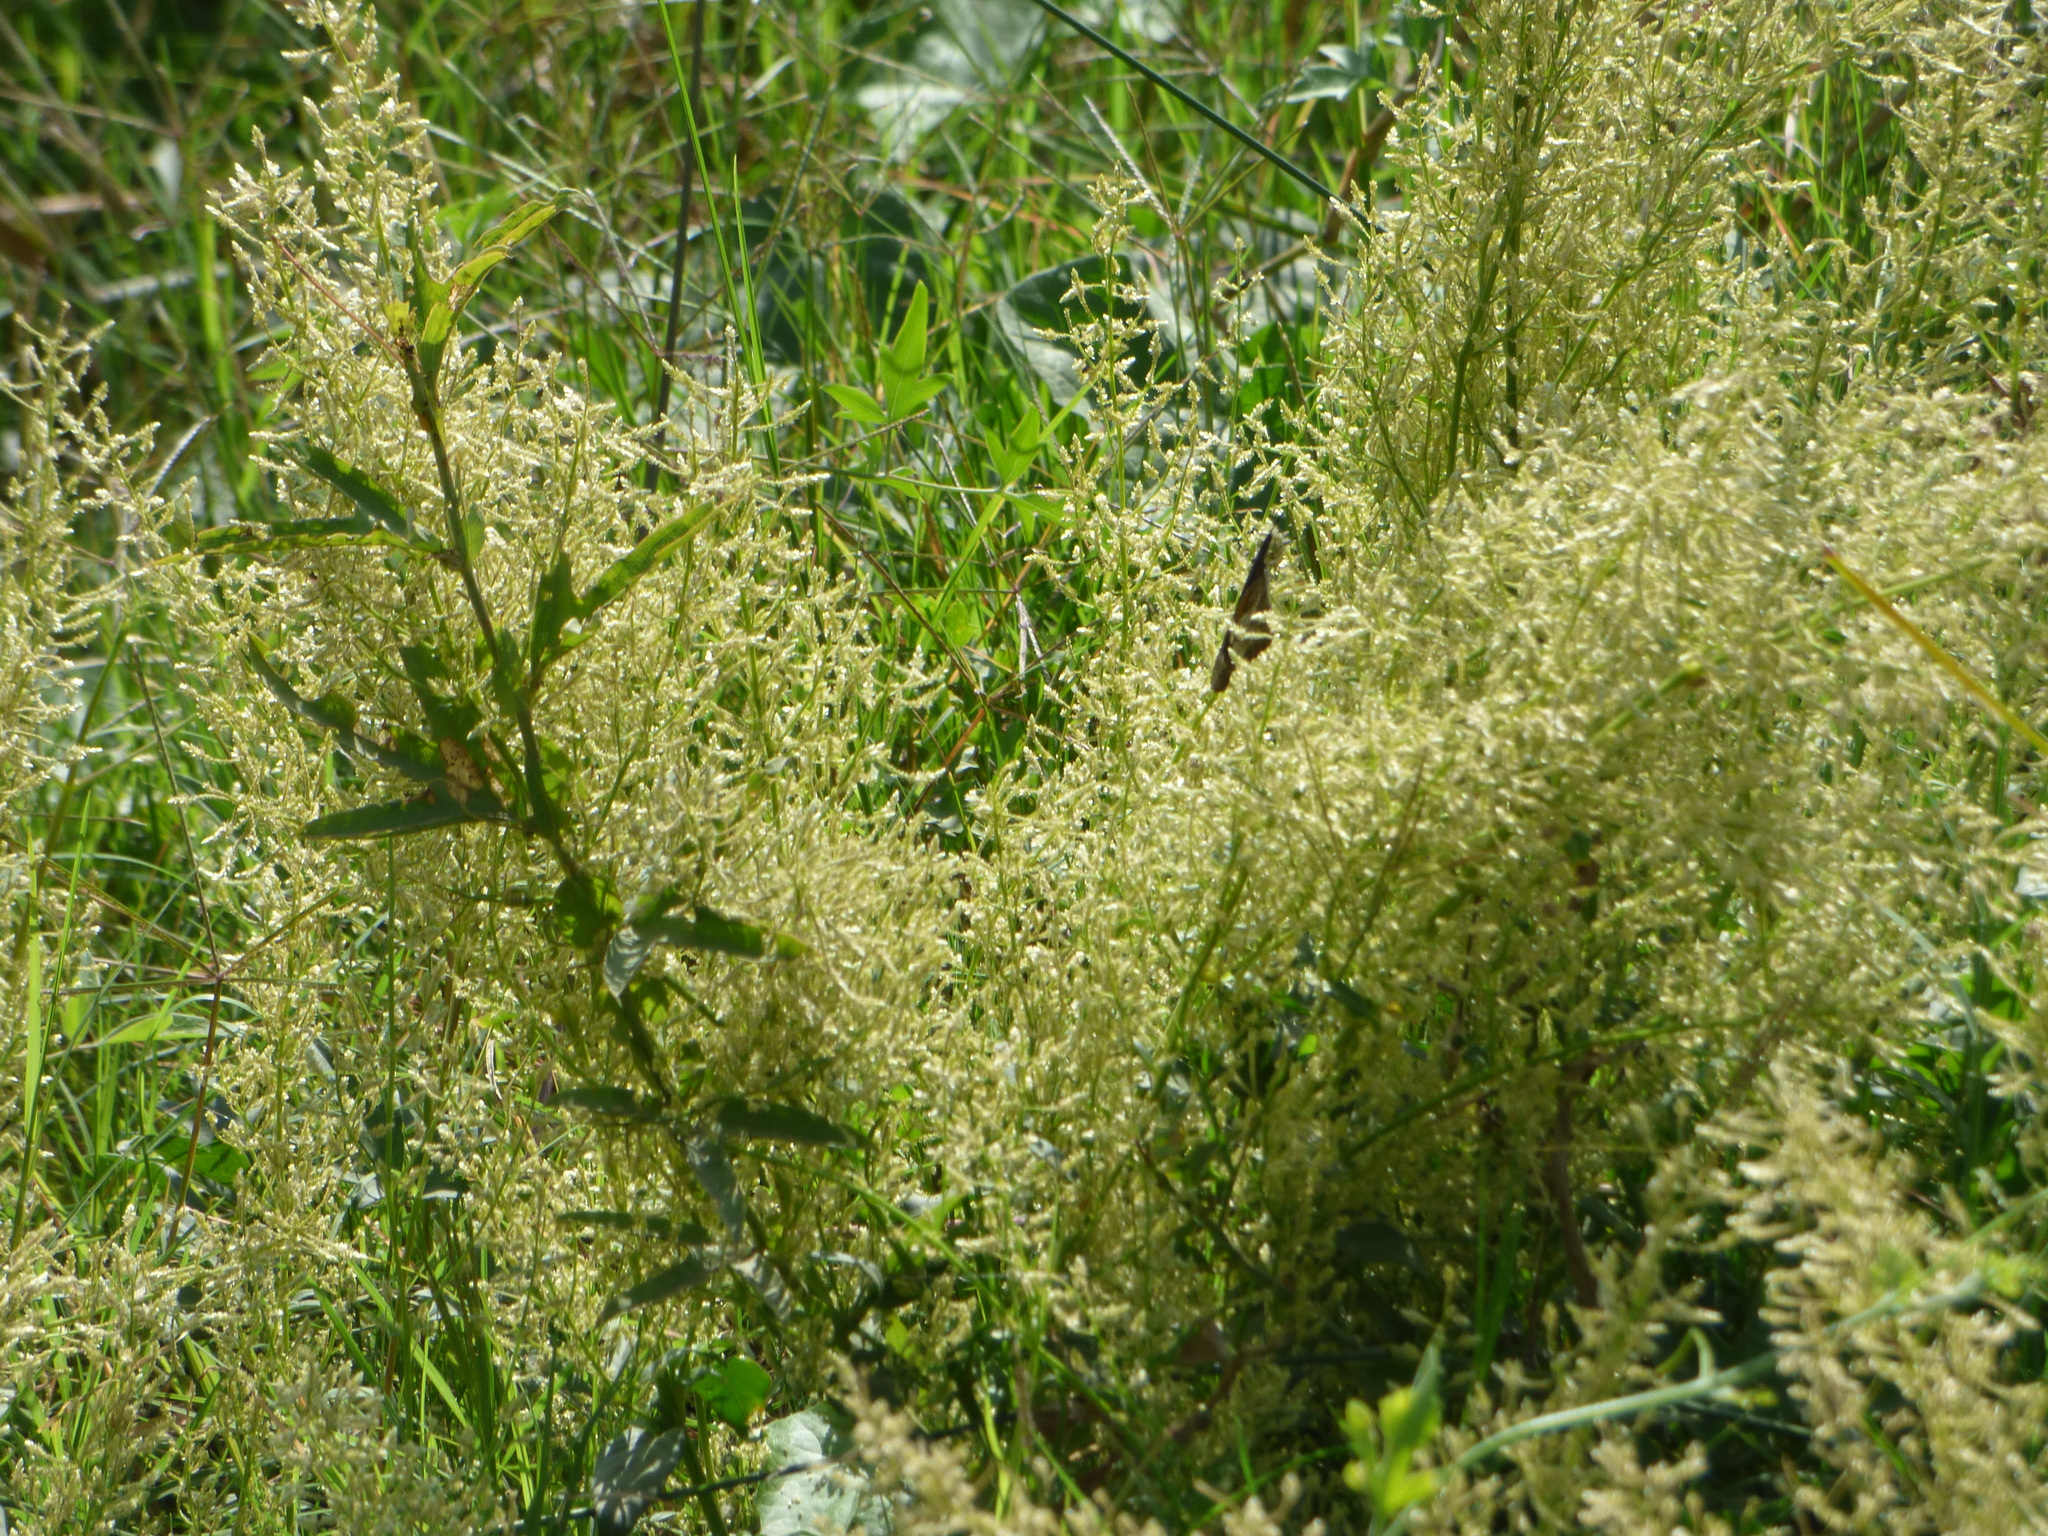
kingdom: Plantae
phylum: Tracheophyta
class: Magnoliopsida
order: Caryophyllales
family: Amaranthaceae
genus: Iresine
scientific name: Iresine diffusa
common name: Juba's-bush
